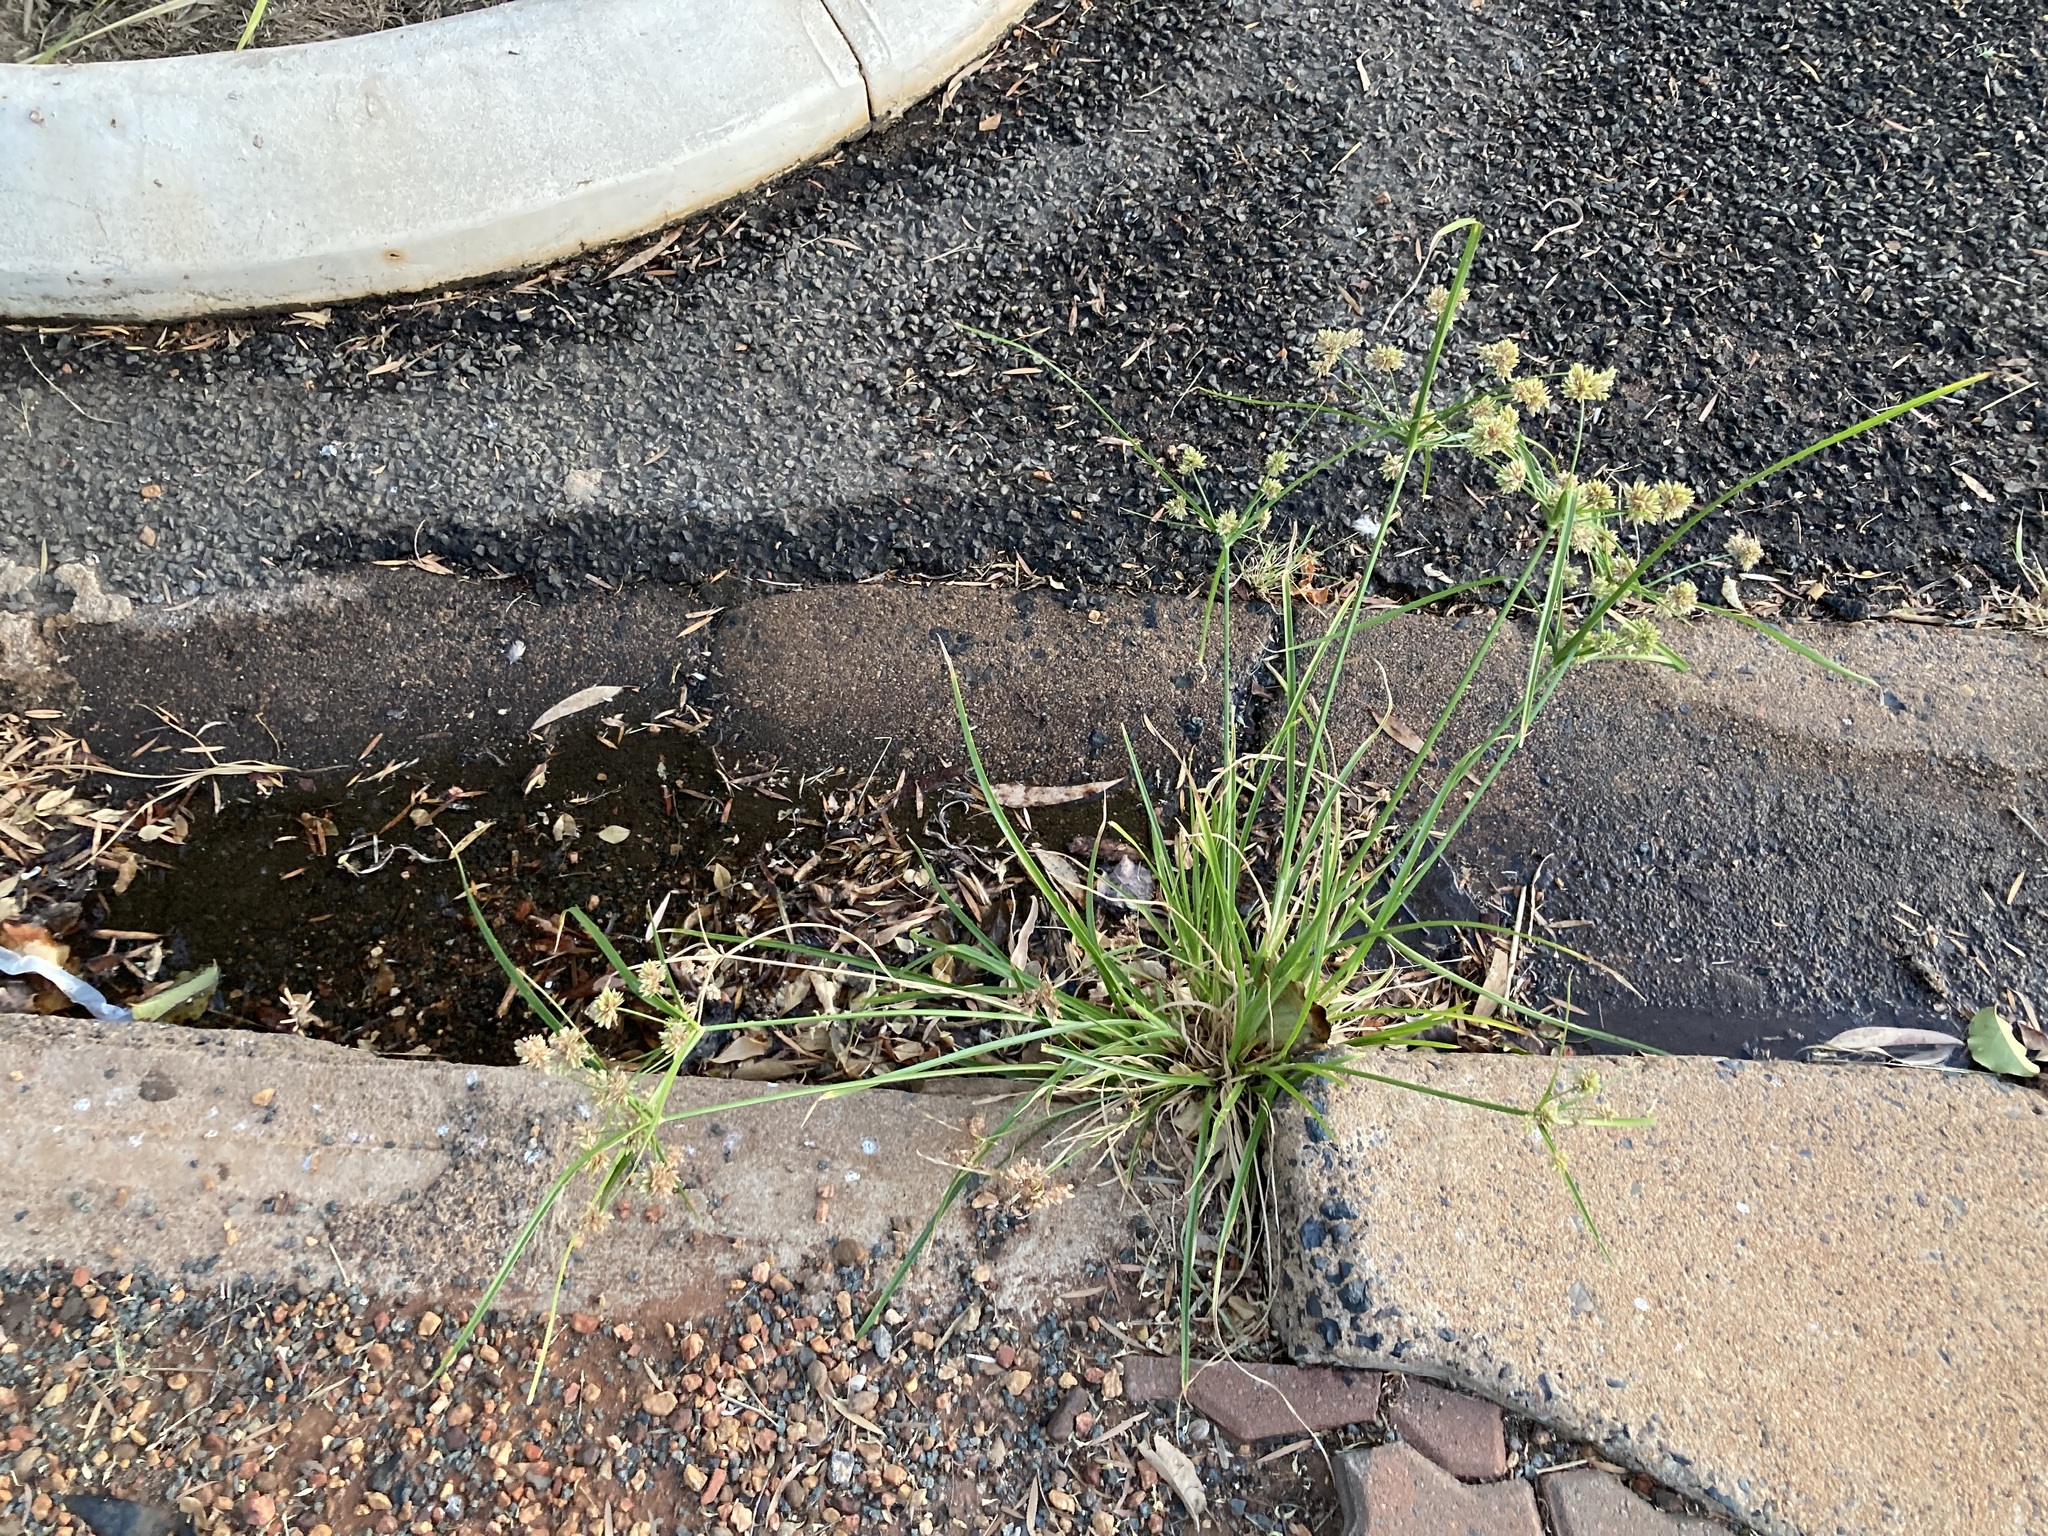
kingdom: Plantae
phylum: Tracheophyta
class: Liliopsida
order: Poales
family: Cyperaceae
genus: Cyperus
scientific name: Cyperus eragrostis
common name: Tall flatsedge
